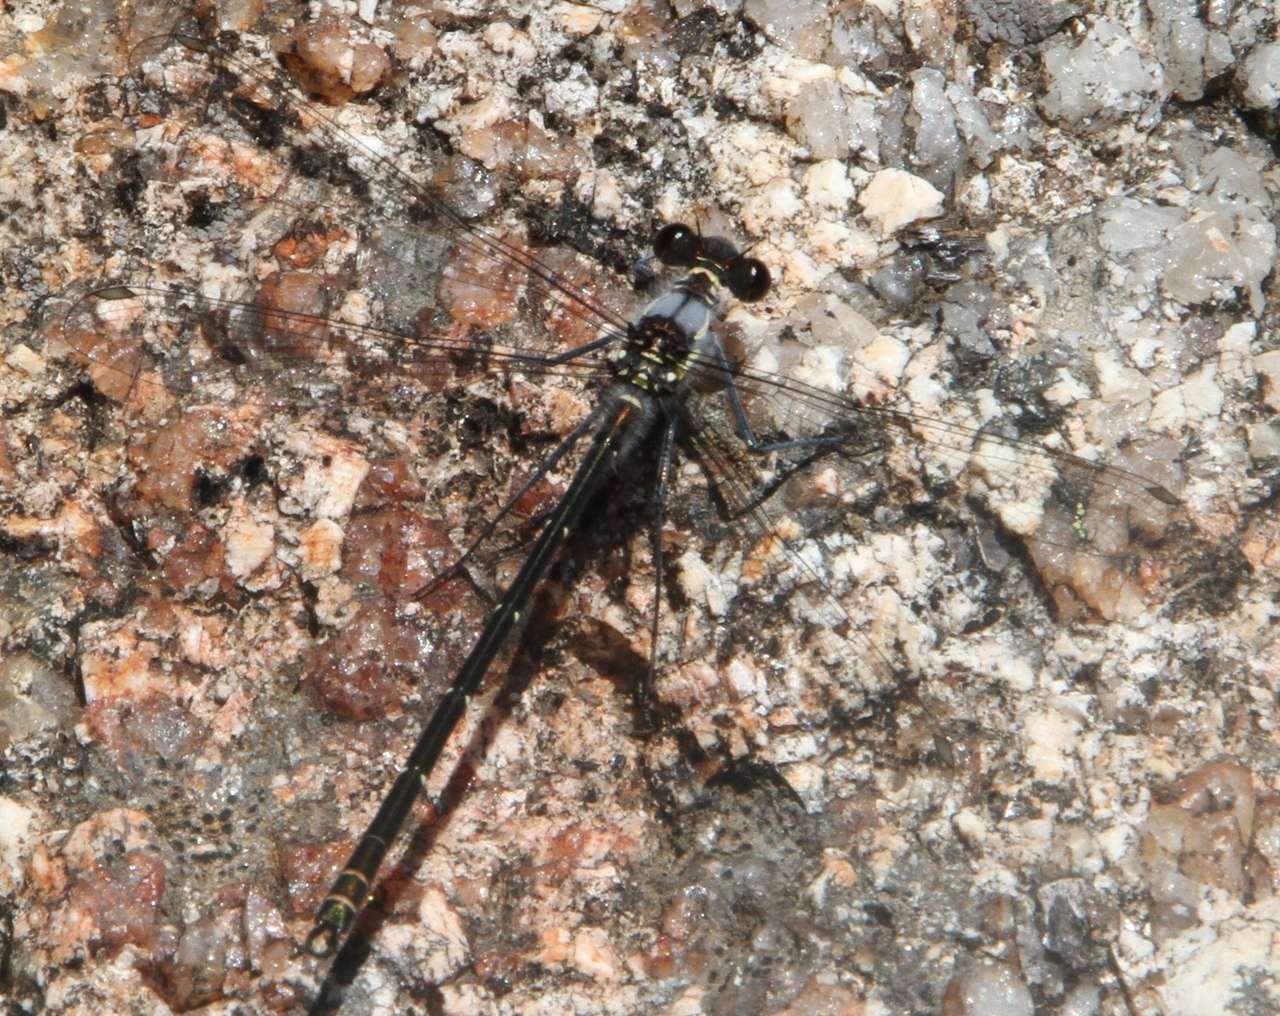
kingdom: Animalia
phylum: Arthropoda
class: Insecta
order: Odonata
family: Argiolestidae
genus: Austroargiolestes
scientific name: Austroargiolestes calcaris
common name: Powdered flatwing
